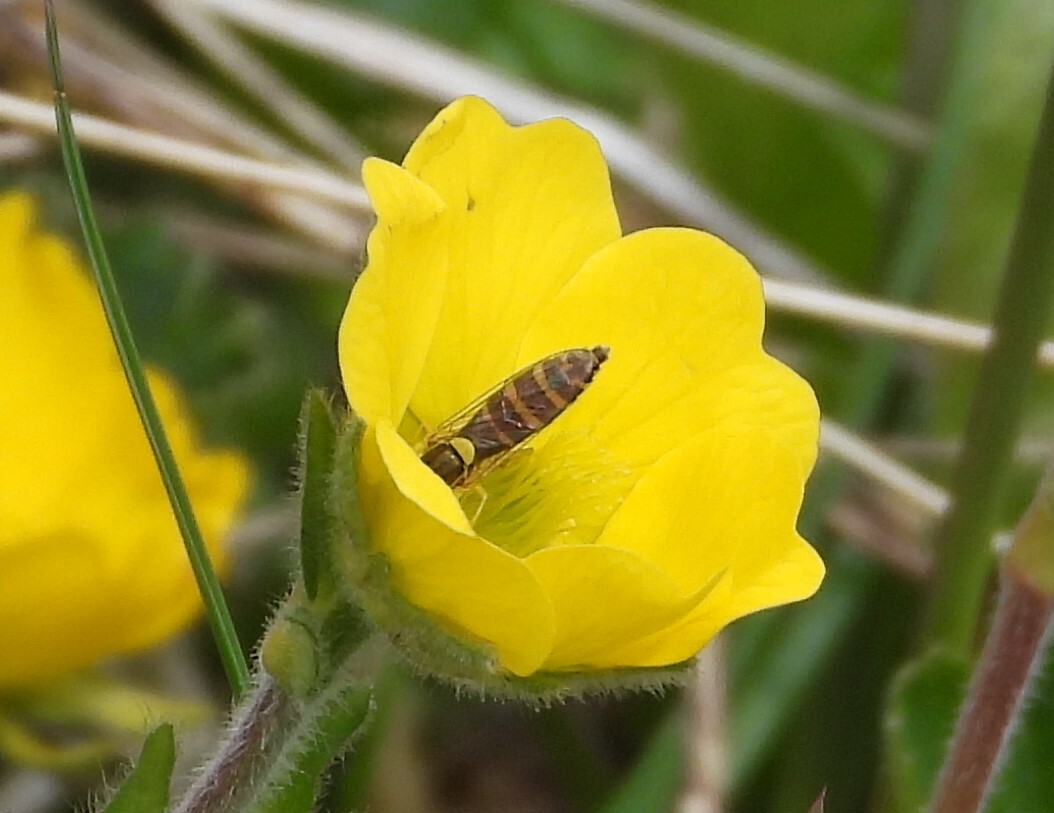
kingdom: Animalia
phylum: Arthropoda
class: Insecta
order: Diptera
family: Syrphidae
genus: Sphaerophoria
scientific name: Sphaerophoria
